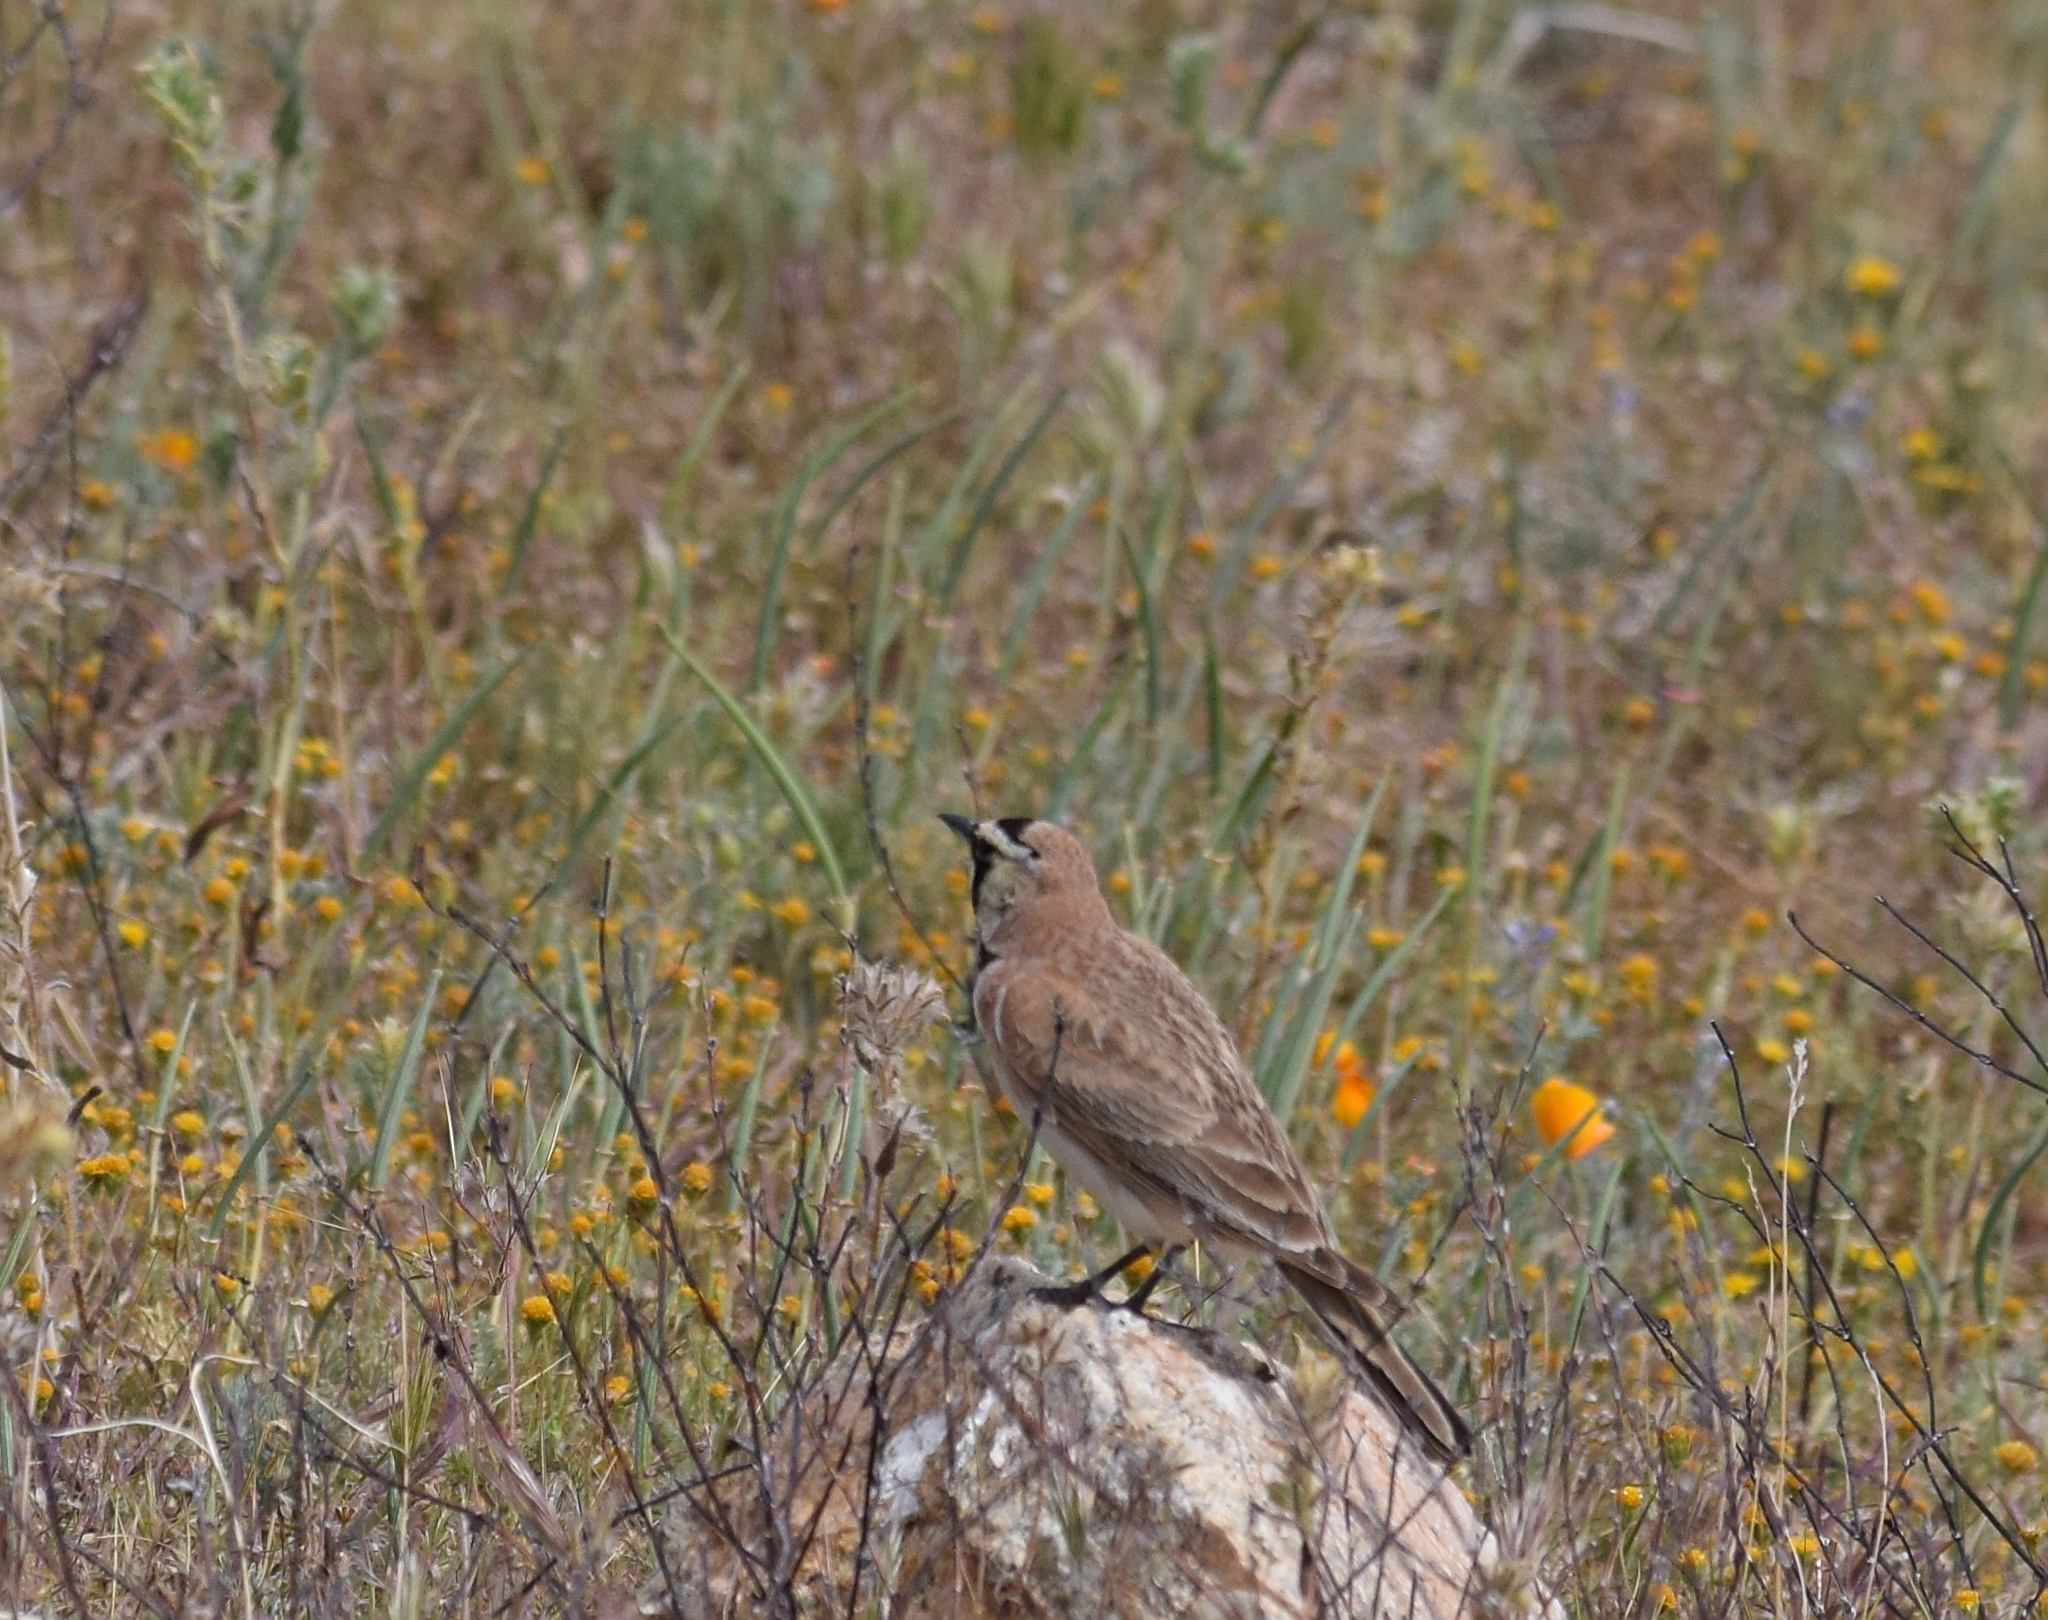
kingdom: Animalia
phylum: Chordata
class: Aves
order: Passeriformes
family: Alaudidae
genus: Eremophila
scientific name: Eremophila alpestris
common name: Horned lark
